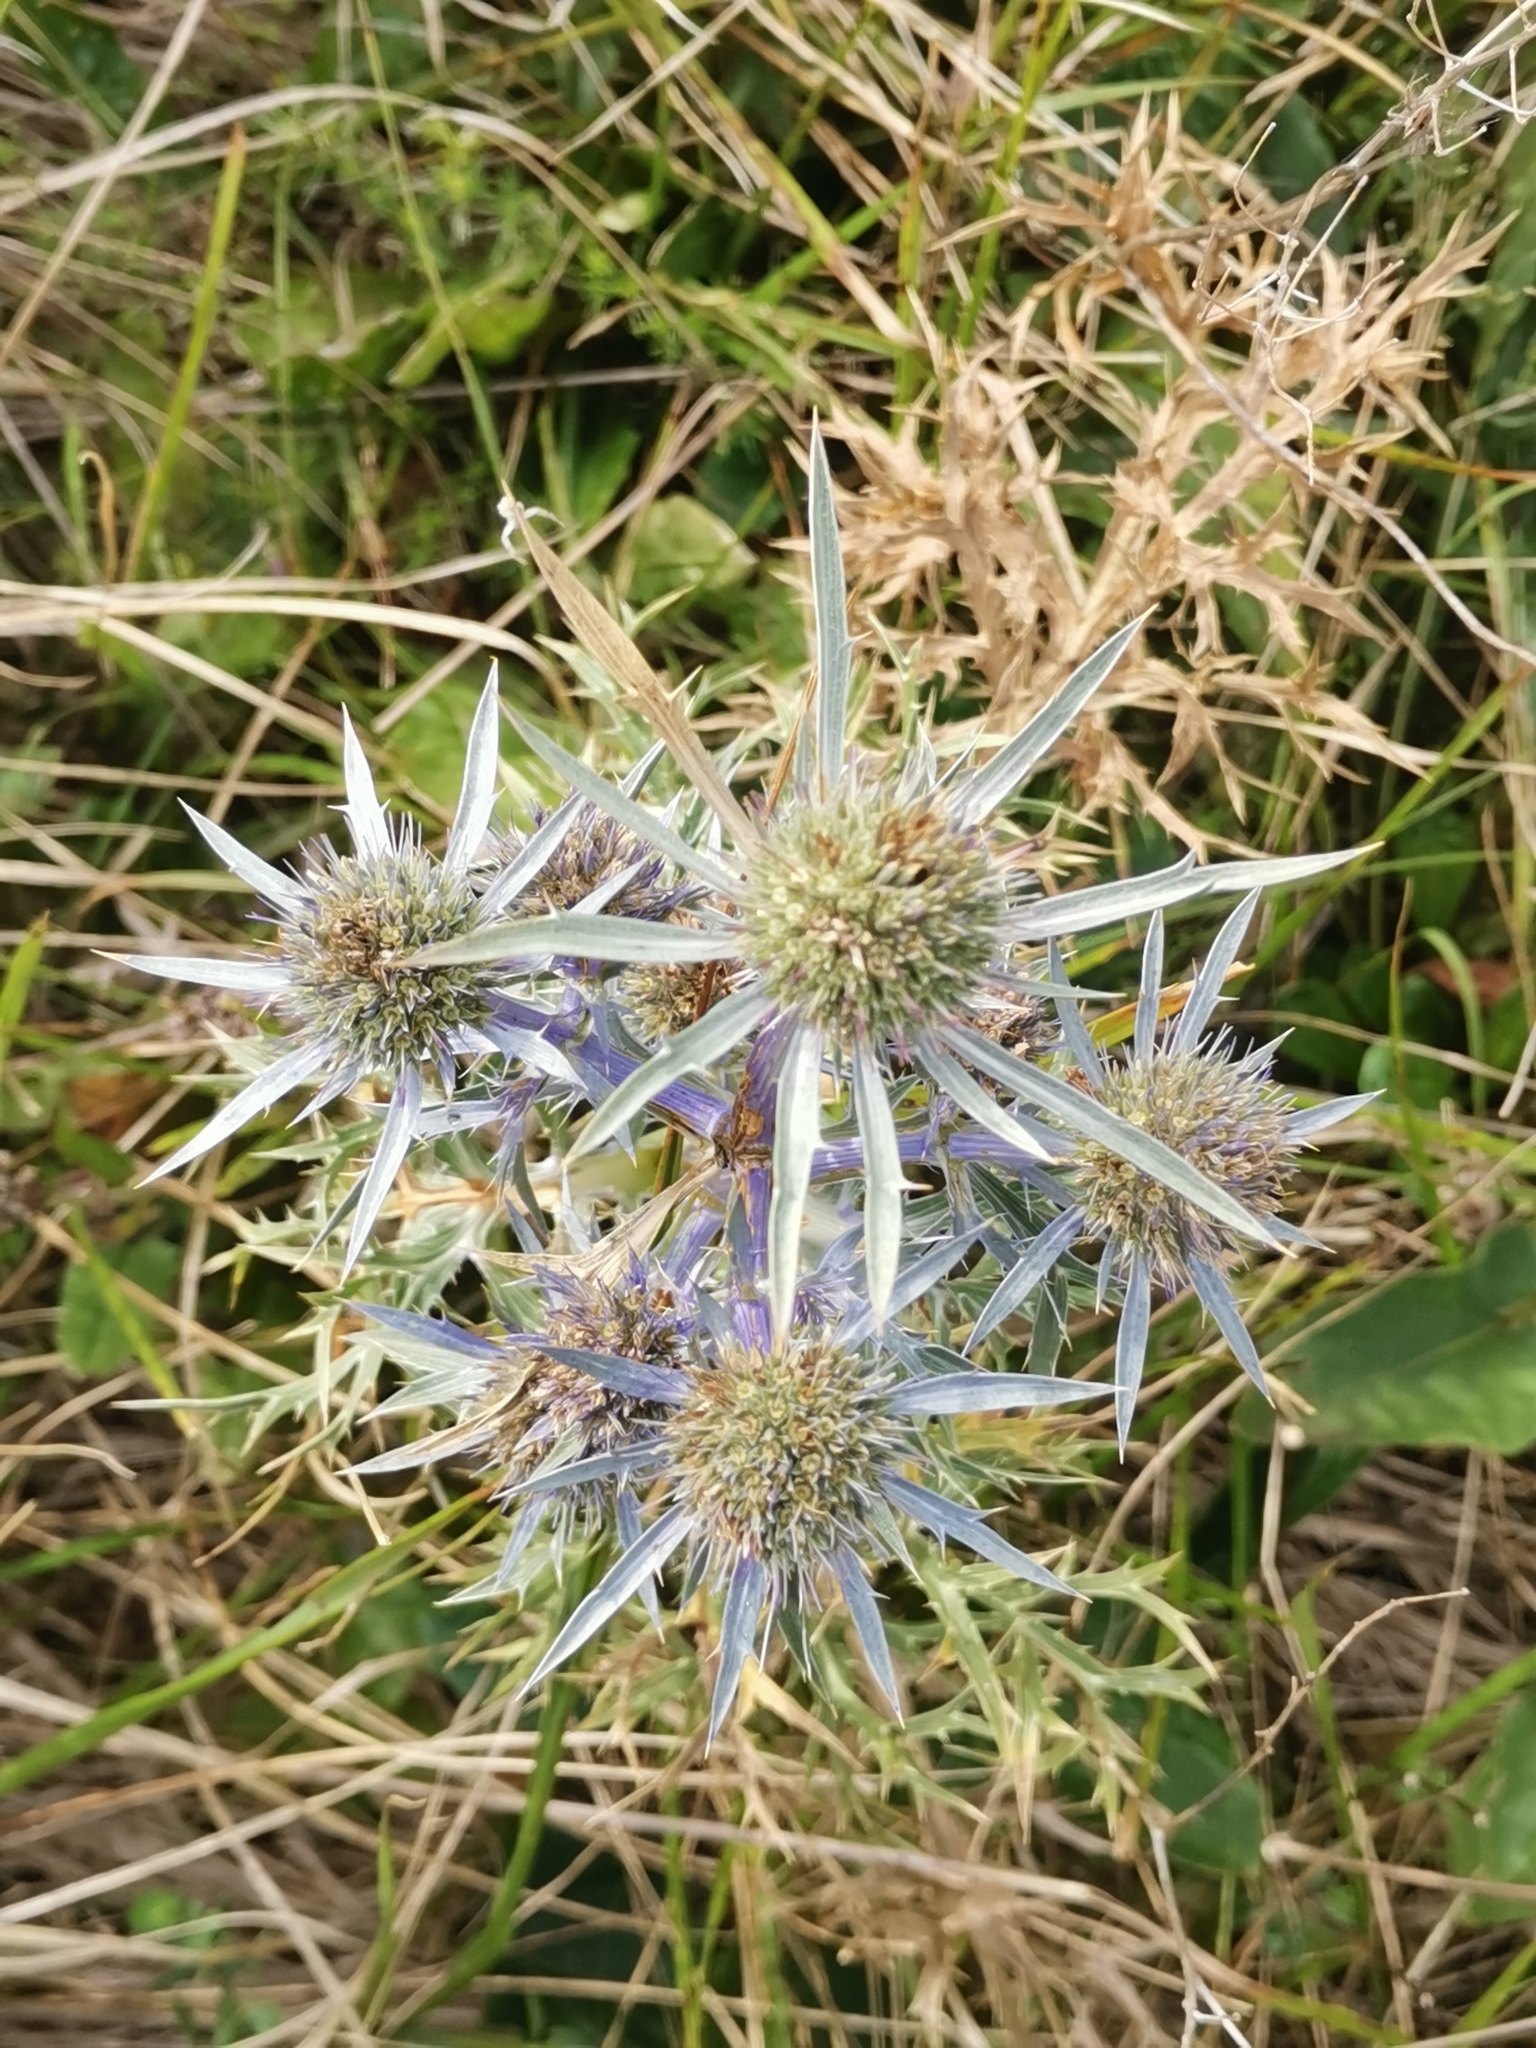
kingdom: Plantae
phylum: Tracheophyta
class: Magnoliopsida
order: Apiales
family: Apiaceae
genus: Eryngium
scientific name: Eryngium amethystinum
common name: Amethyst eryngo
